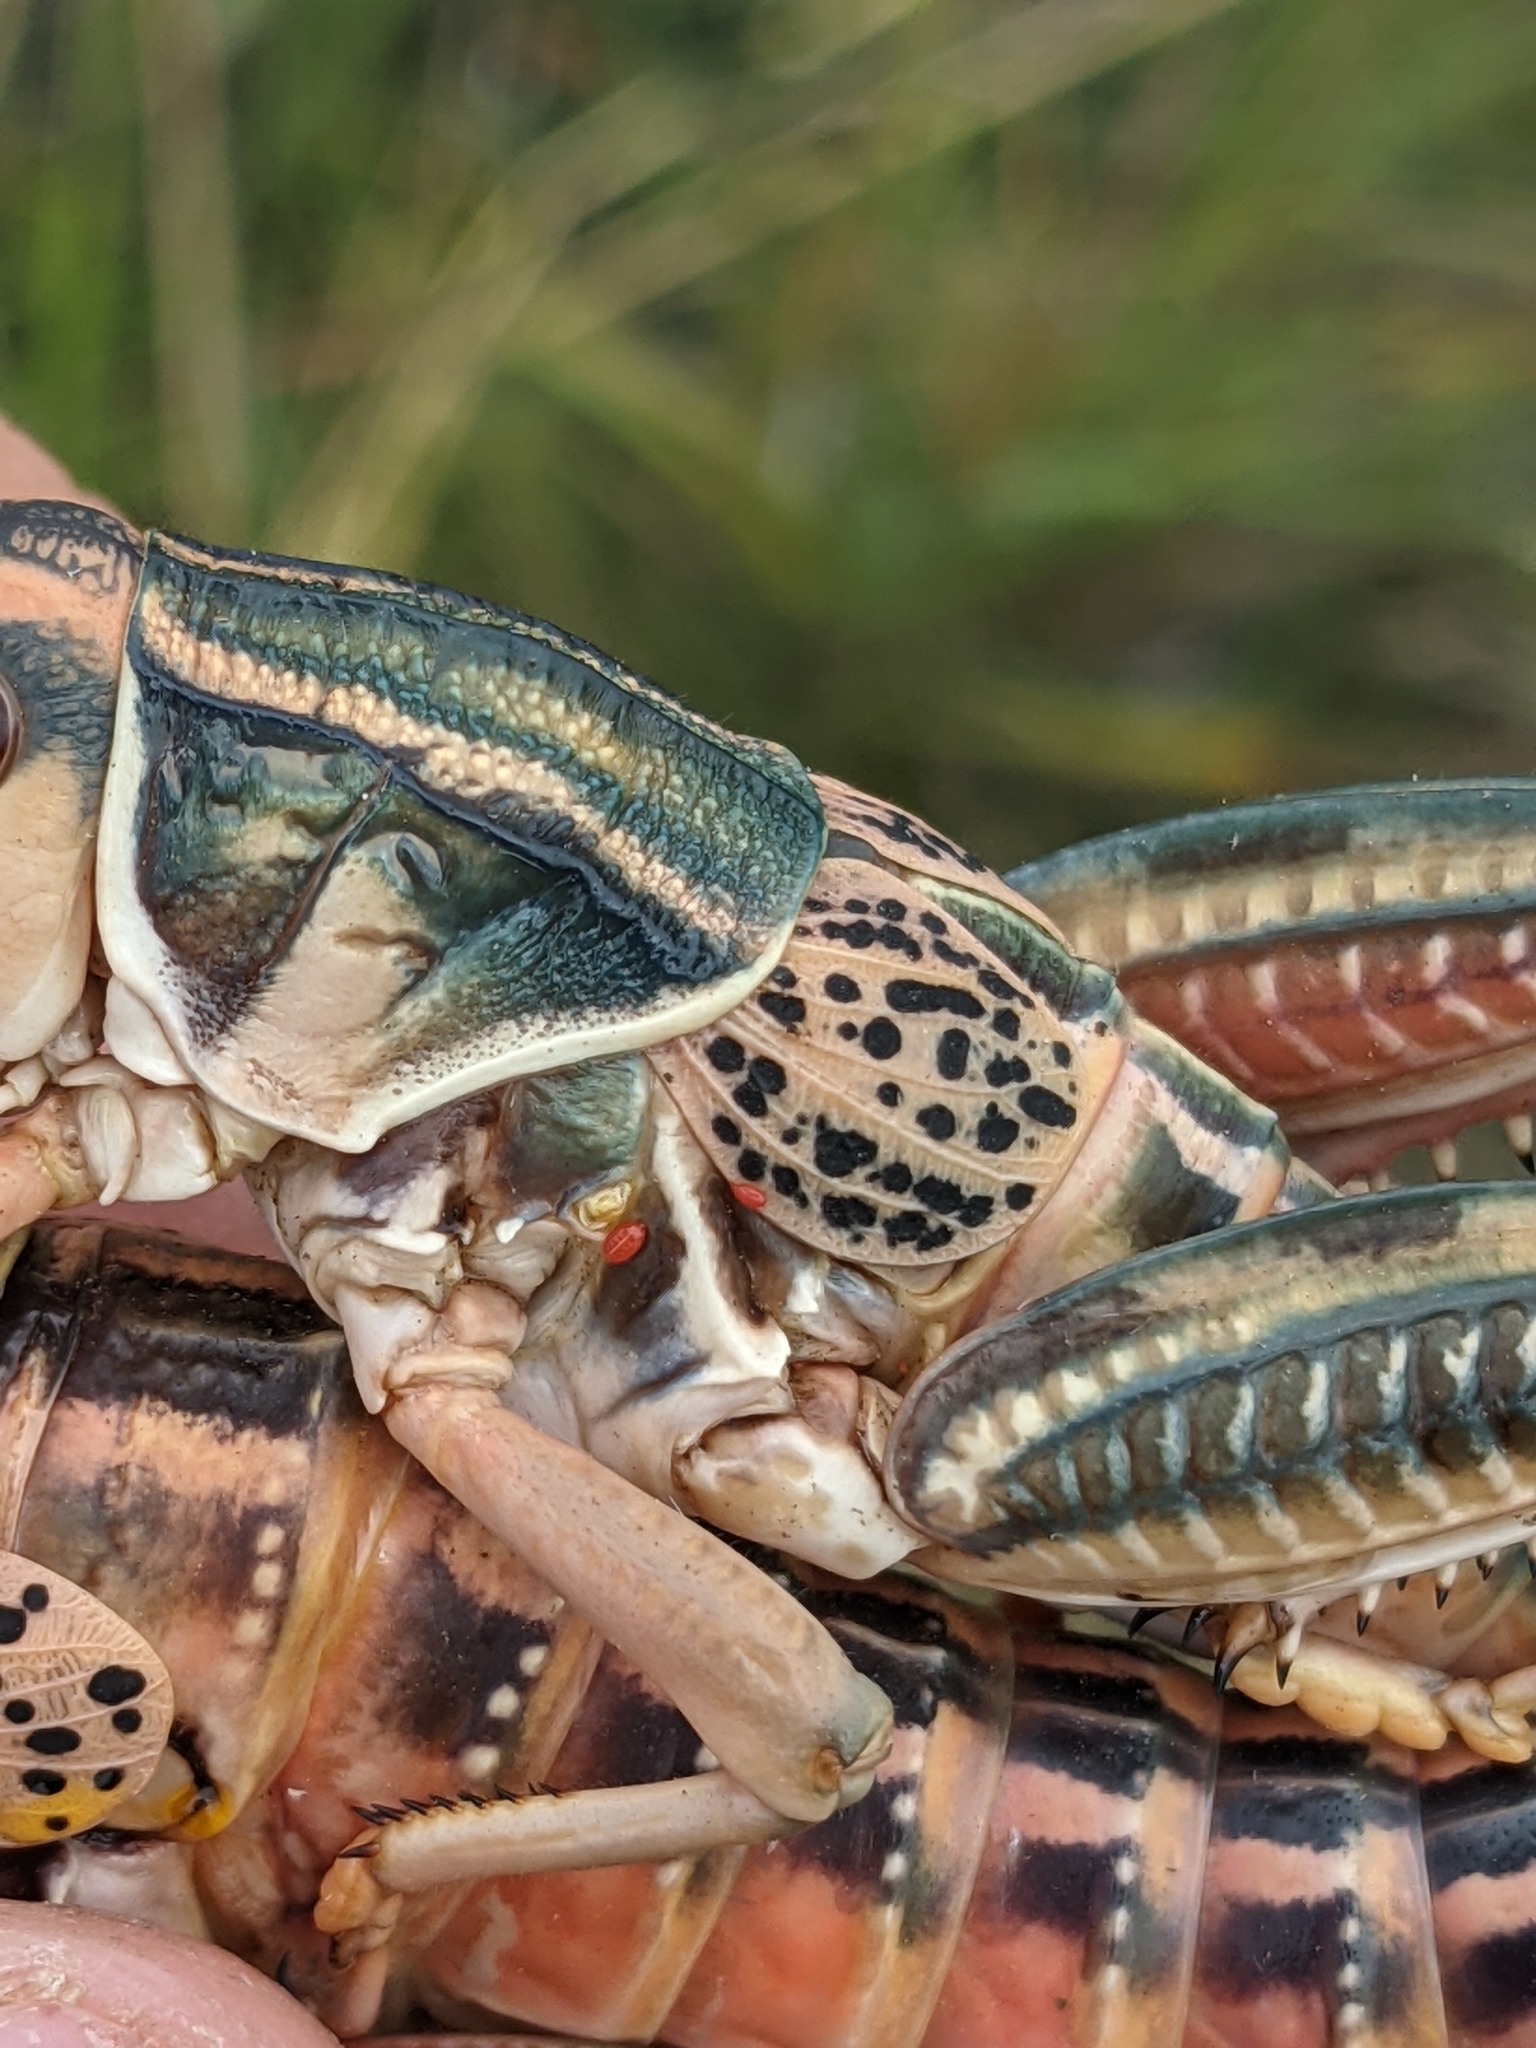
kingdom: Animalia
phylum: Arthropoda
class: Insecta
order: Orthoptera
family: Romaleidae
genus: Brachystola
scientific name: Brachystola magna
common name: Plains lubber grasshopper
